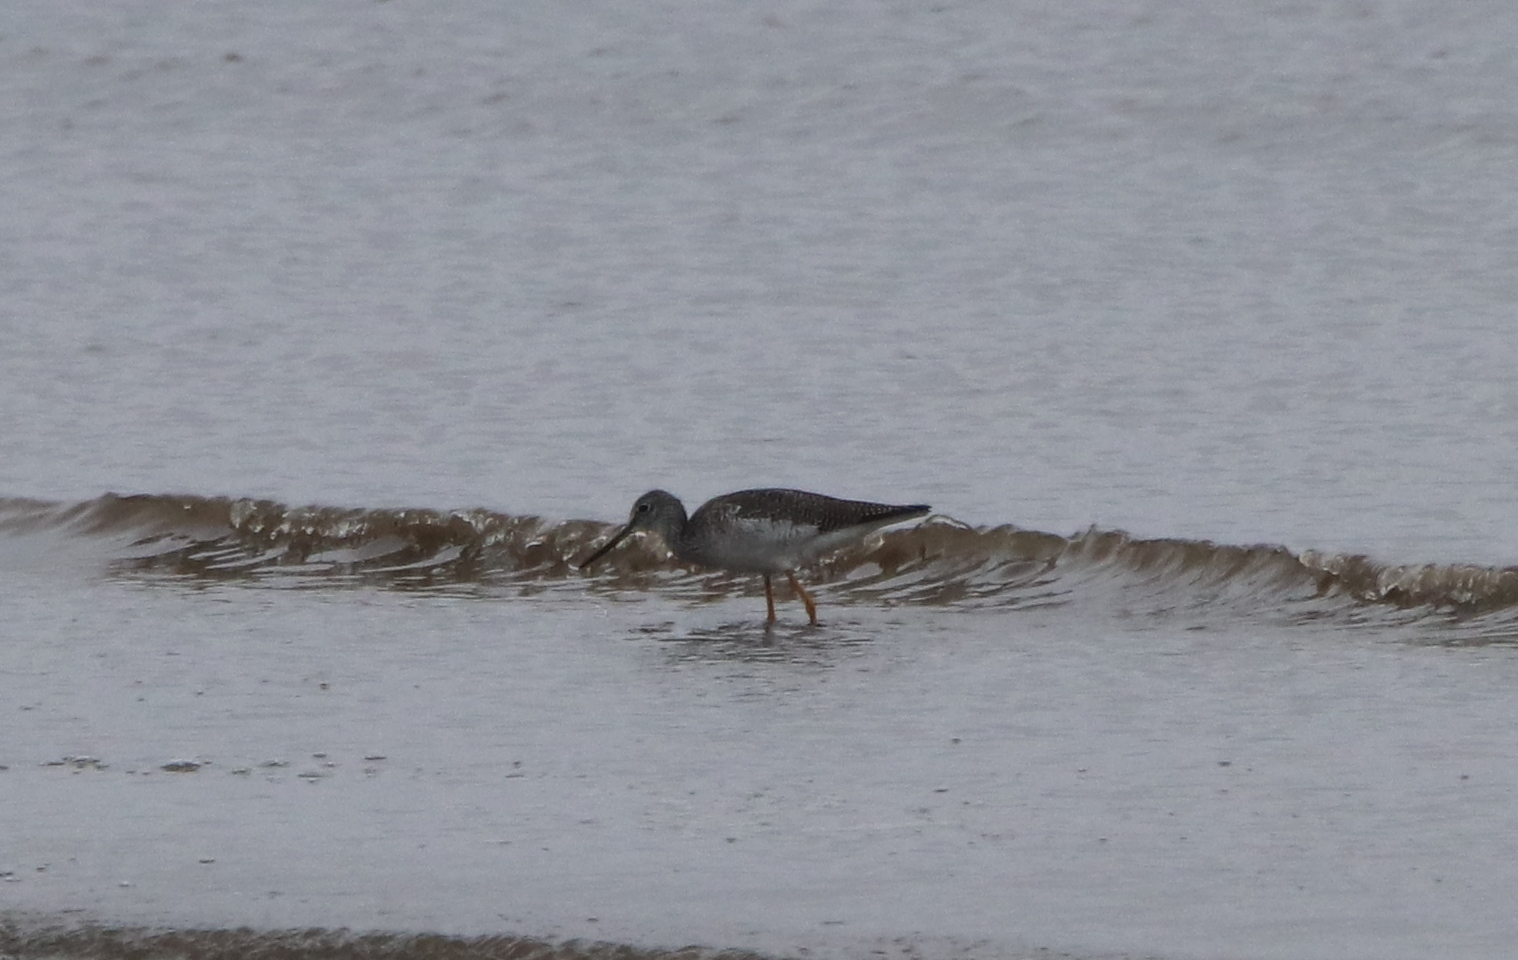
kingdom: Animalia
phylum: Chordata
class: Aves
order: Charadriiformes
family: Scolopacidae
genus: Tringa
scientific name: Tringa melanoleuca
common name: Greater yellowlegs
